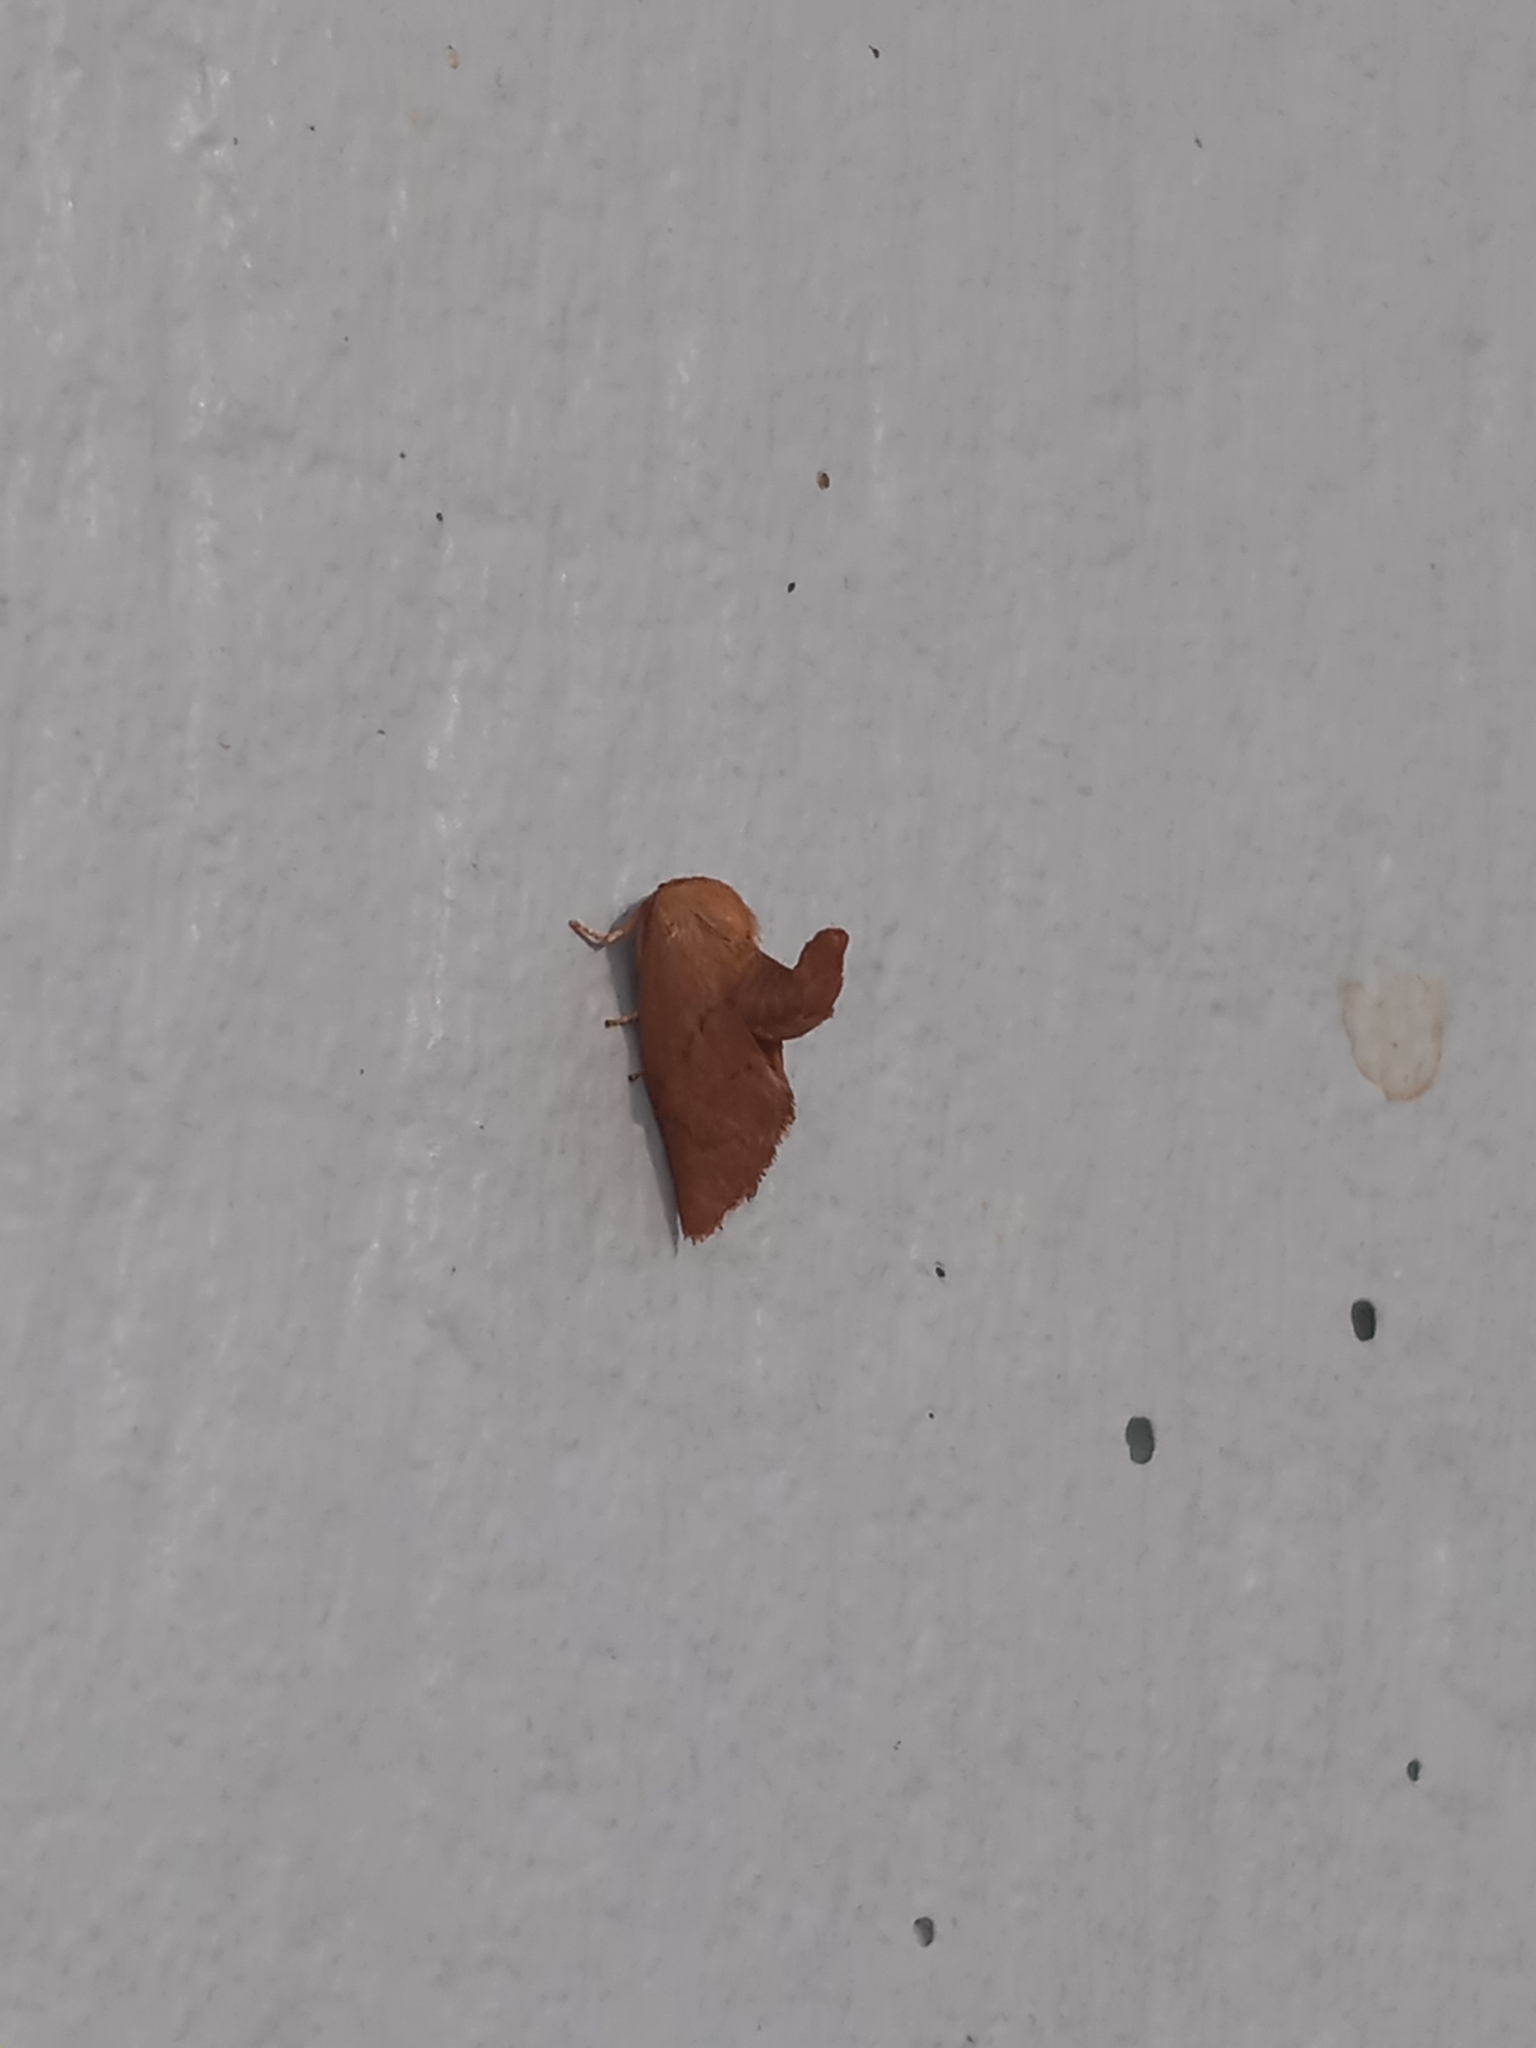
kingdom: Animalia
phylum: Arthropoda
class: Insecta
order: Lepidoptera
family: Limacodidae
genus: Tortricidia
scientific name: Tortricidia pallida
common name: Red-crossed button slug moth
